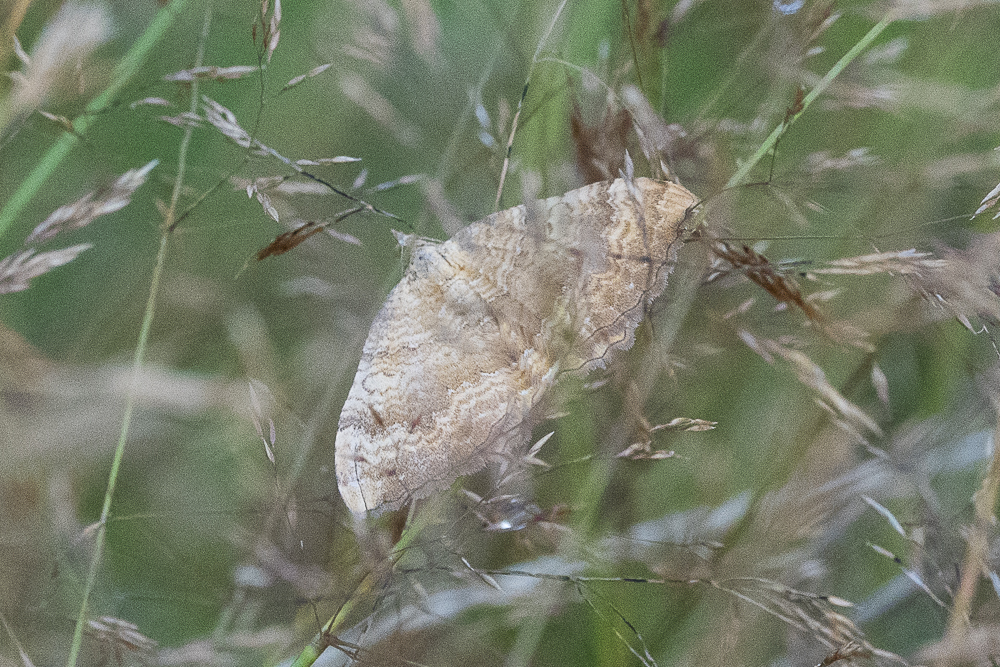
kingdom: Animalia
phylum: Arthropoda
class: Insecta
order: Lepidoptera
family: Geometridae
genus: Camptogramma
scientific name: Camptogramma bilineata
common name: Yellow shell
